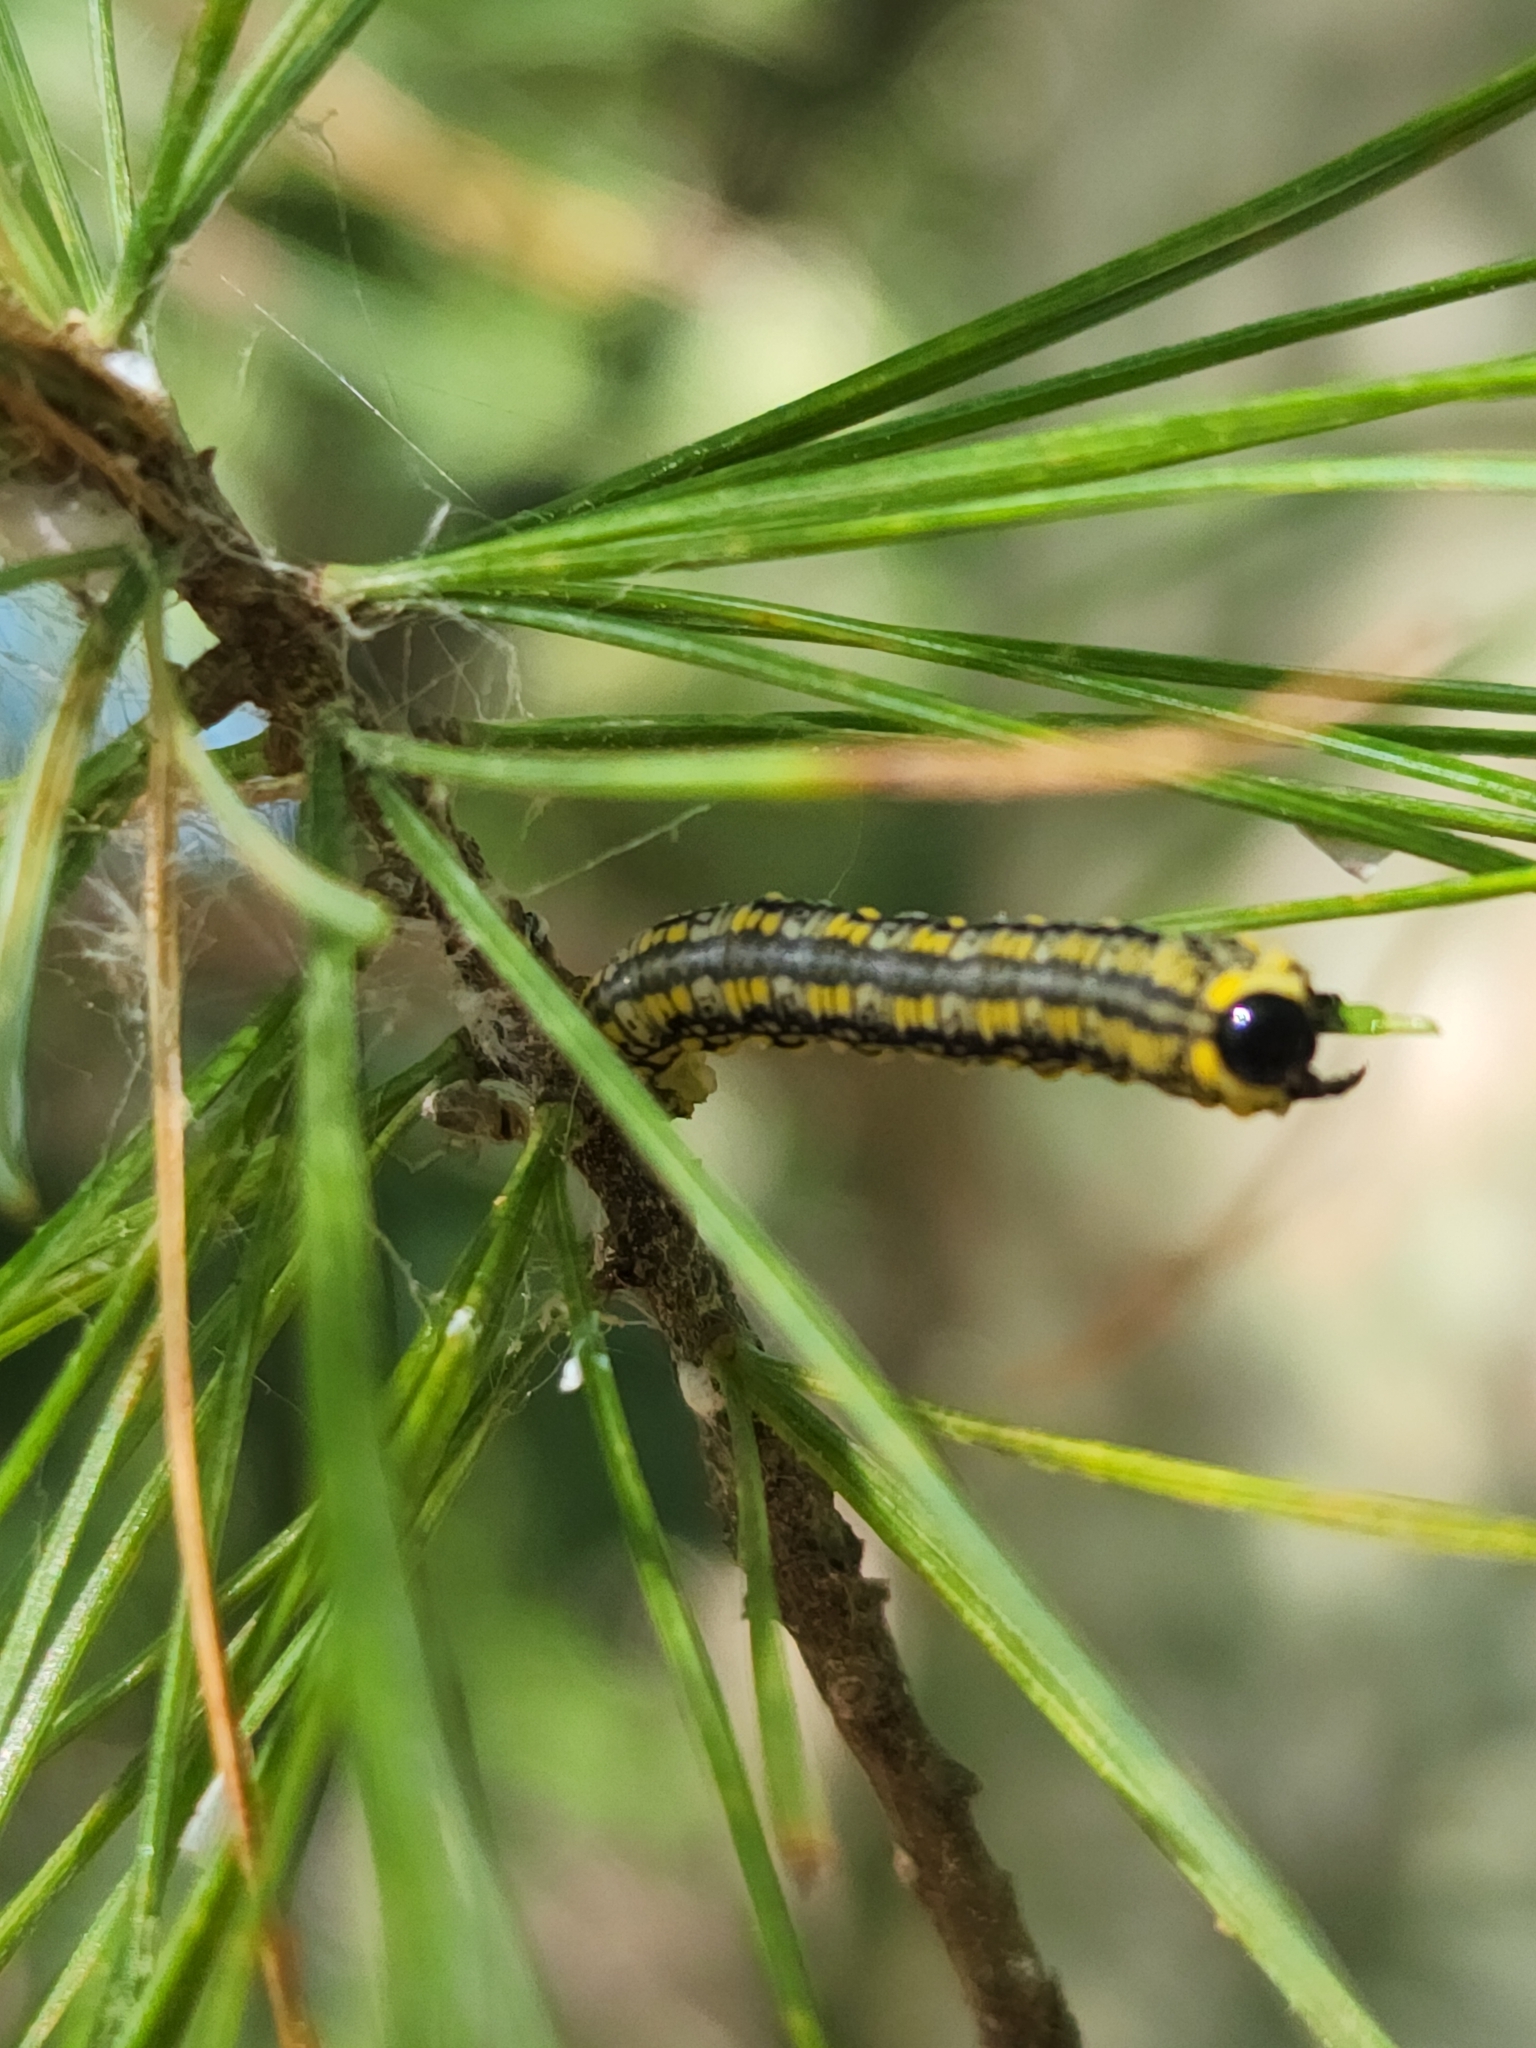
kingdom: Animalia
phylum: Arthropoda
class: Insecta
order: Hymenoptera
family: Diprionidae
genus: Diprion
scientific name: Diprion similis
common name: Pine sawfly
